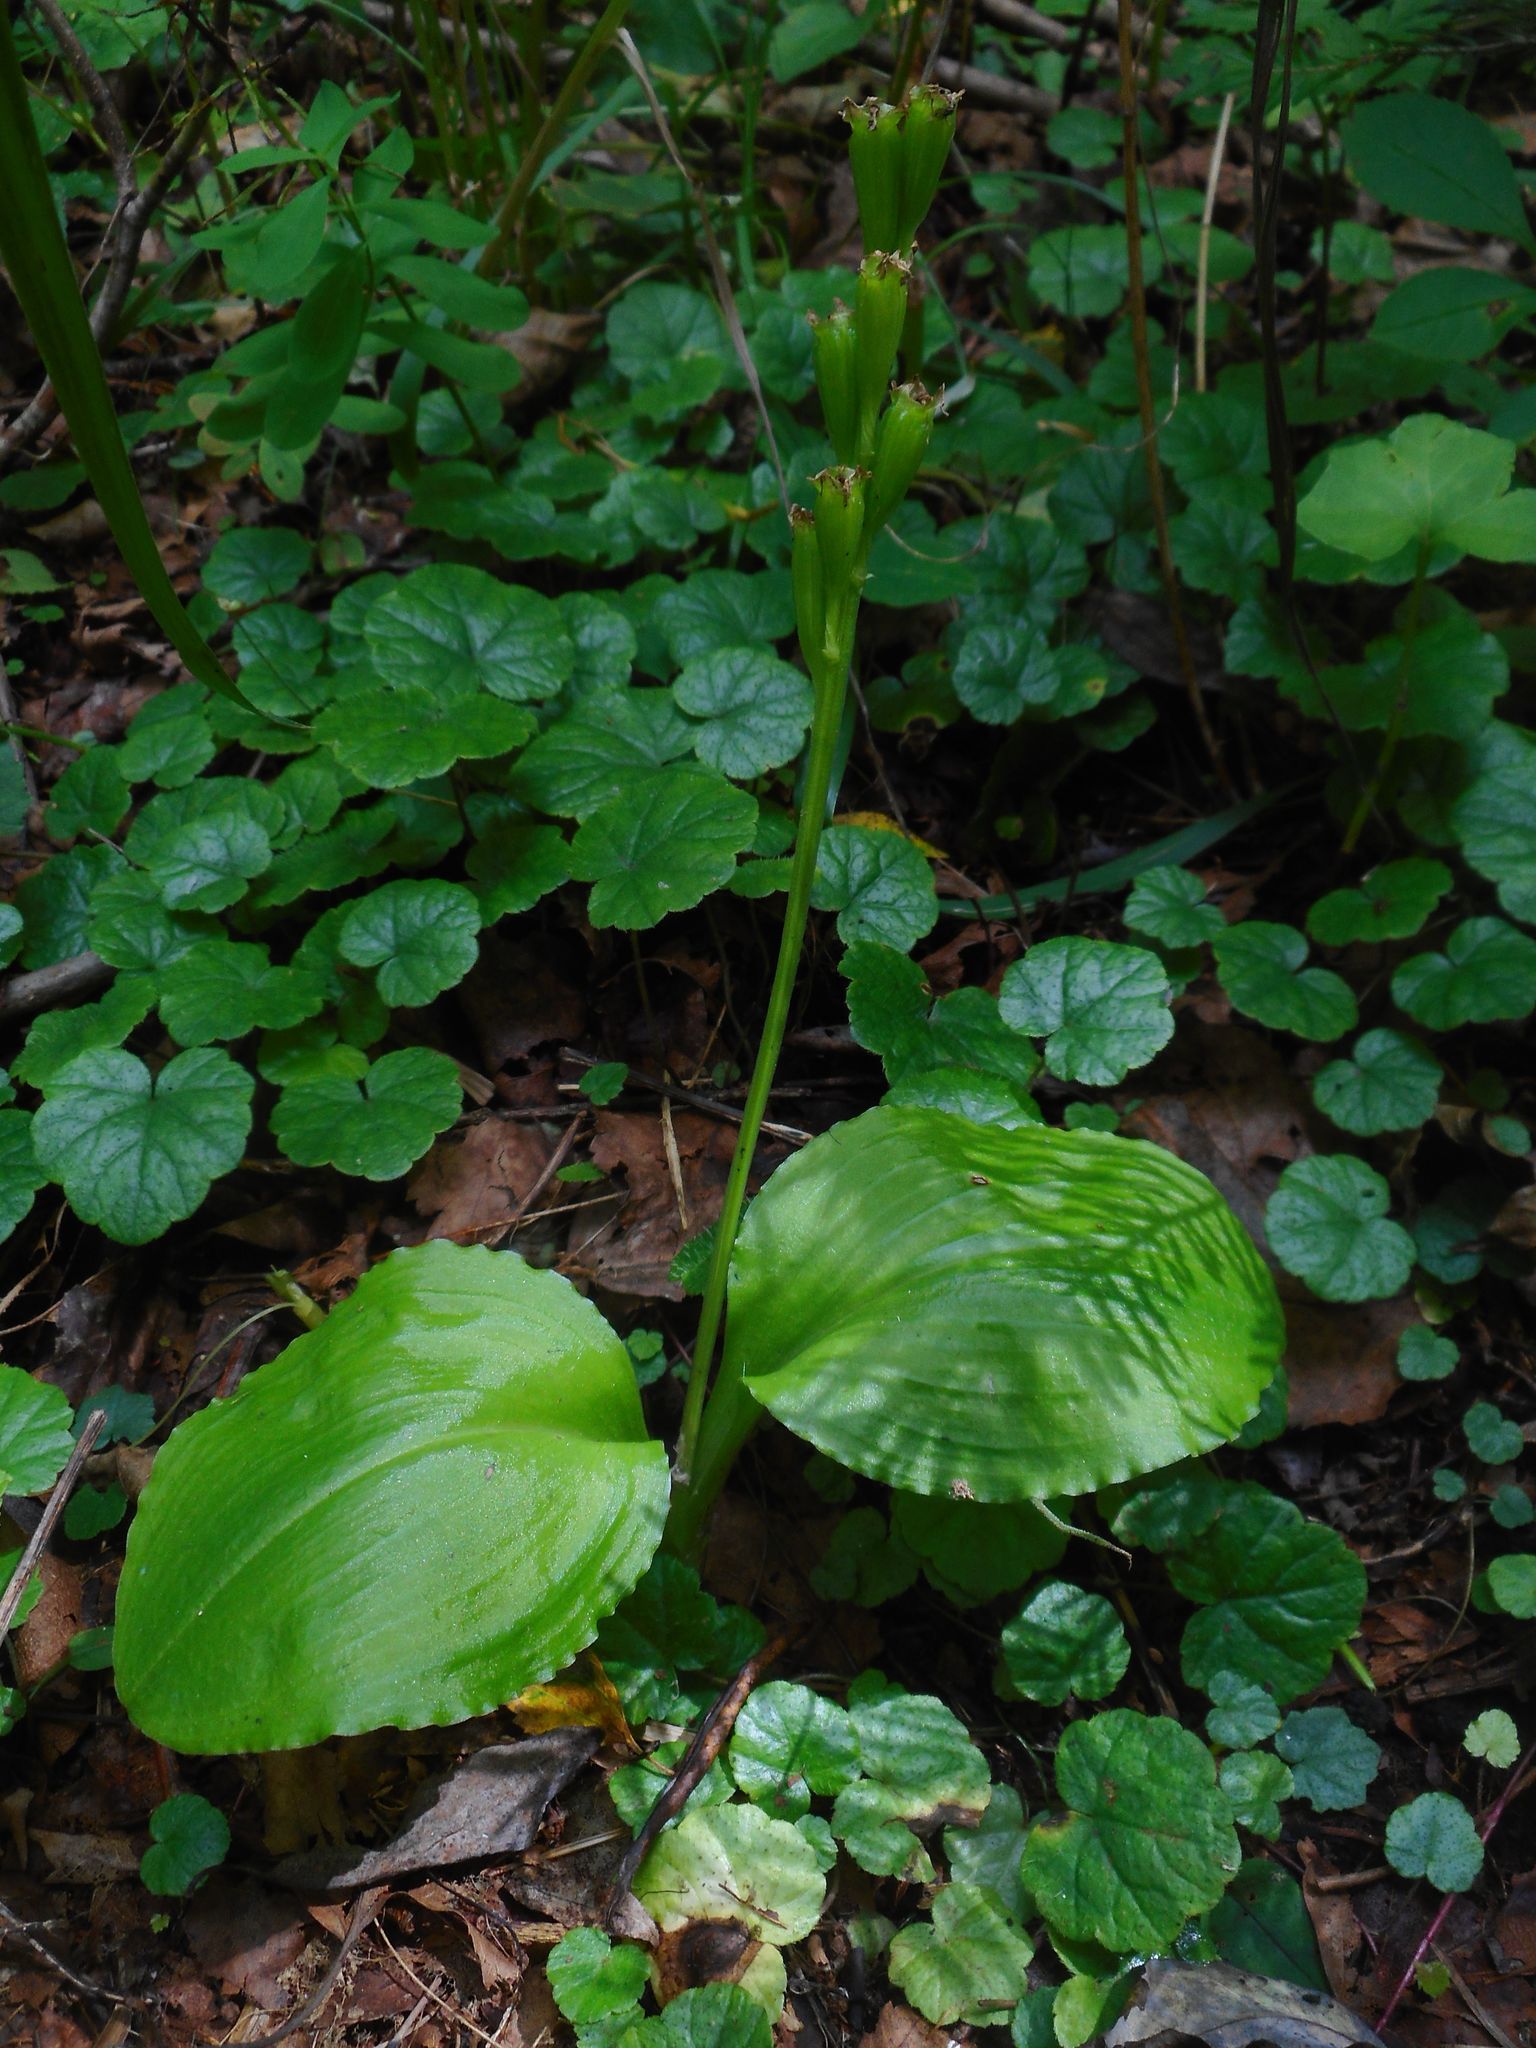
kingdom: Plantae
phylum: Tracheophyta
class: Liliopsida
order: Asparagales
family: Orchidaceae
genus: Liparis
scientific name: Liparis kumokiri
